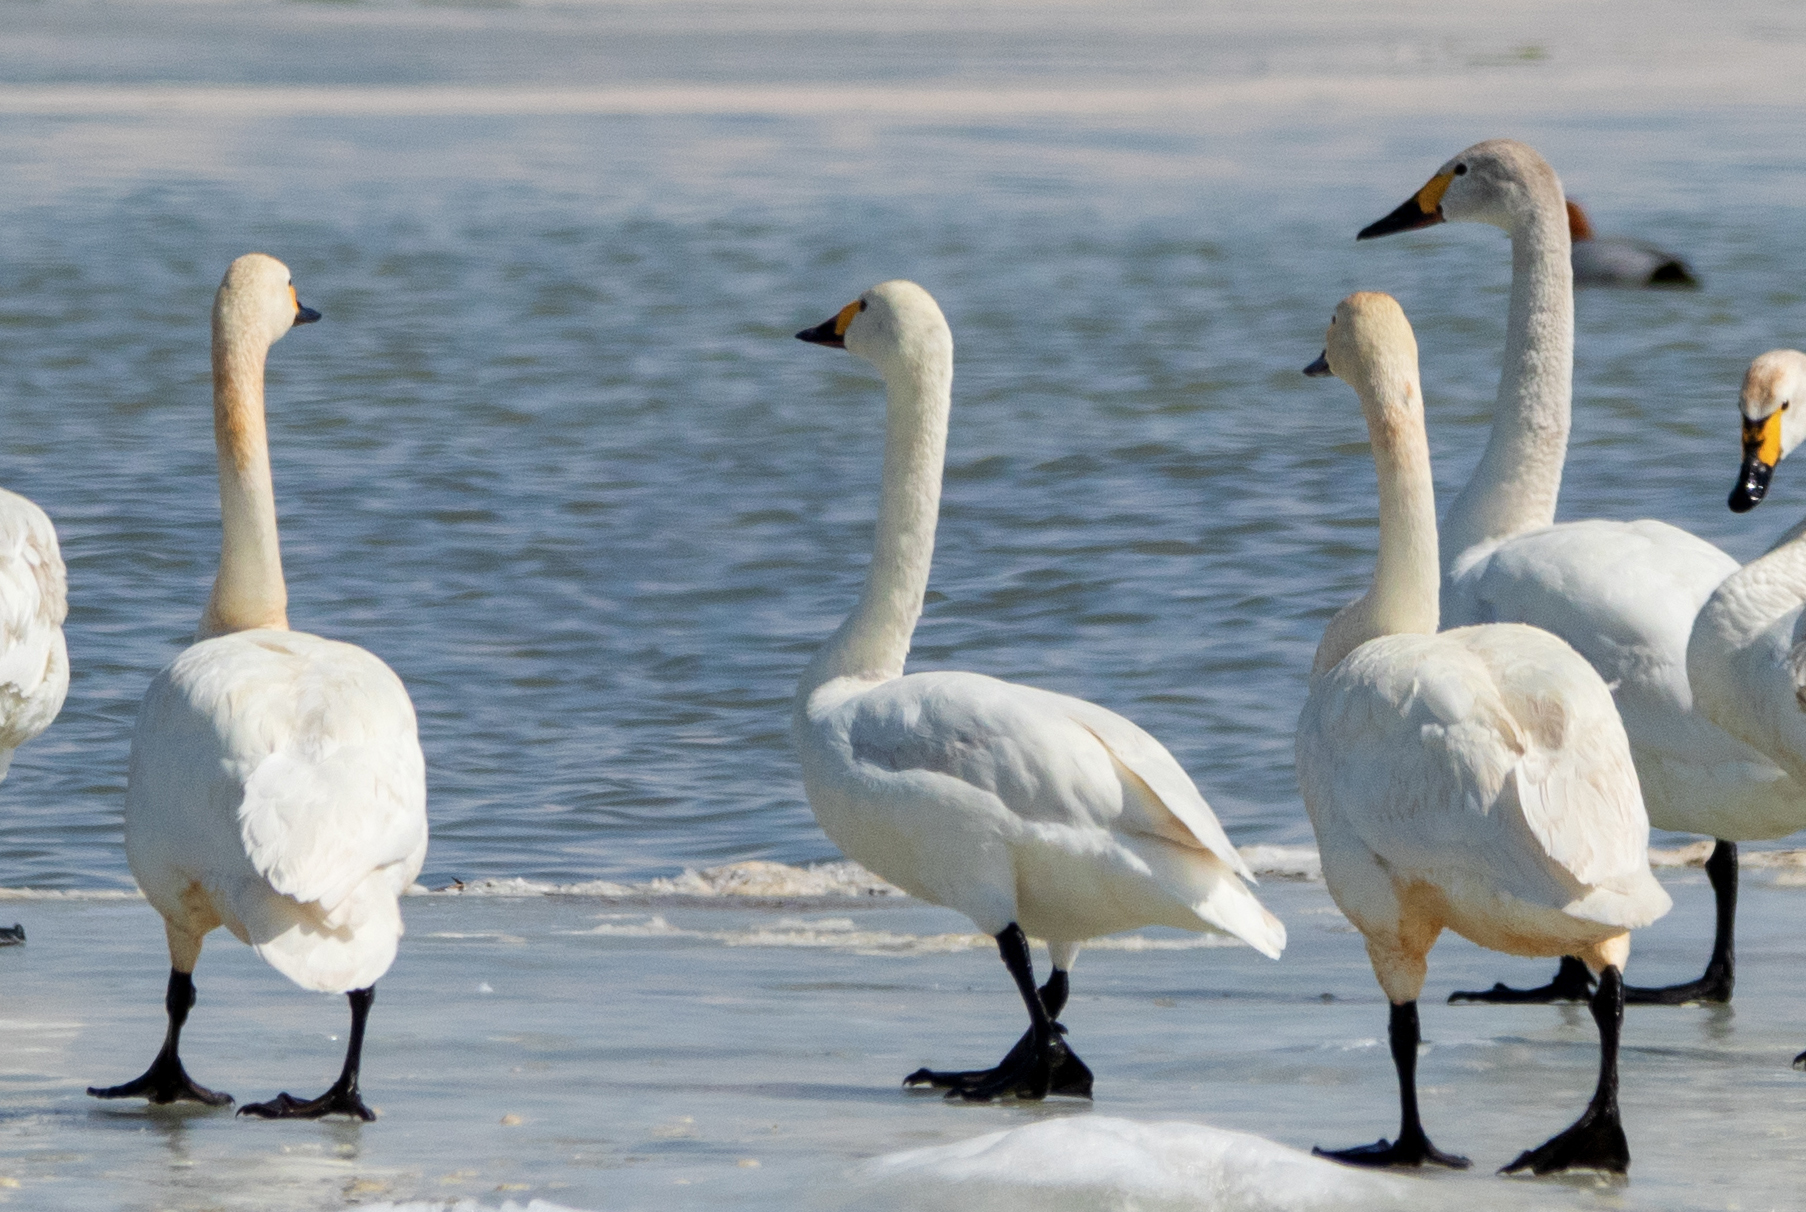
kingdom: Animalia
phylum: Chordata
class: Aves
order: Anseriformes
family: Anatidae
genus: Cygnus
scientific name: Cygnus columbianus
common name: Tundra swan
